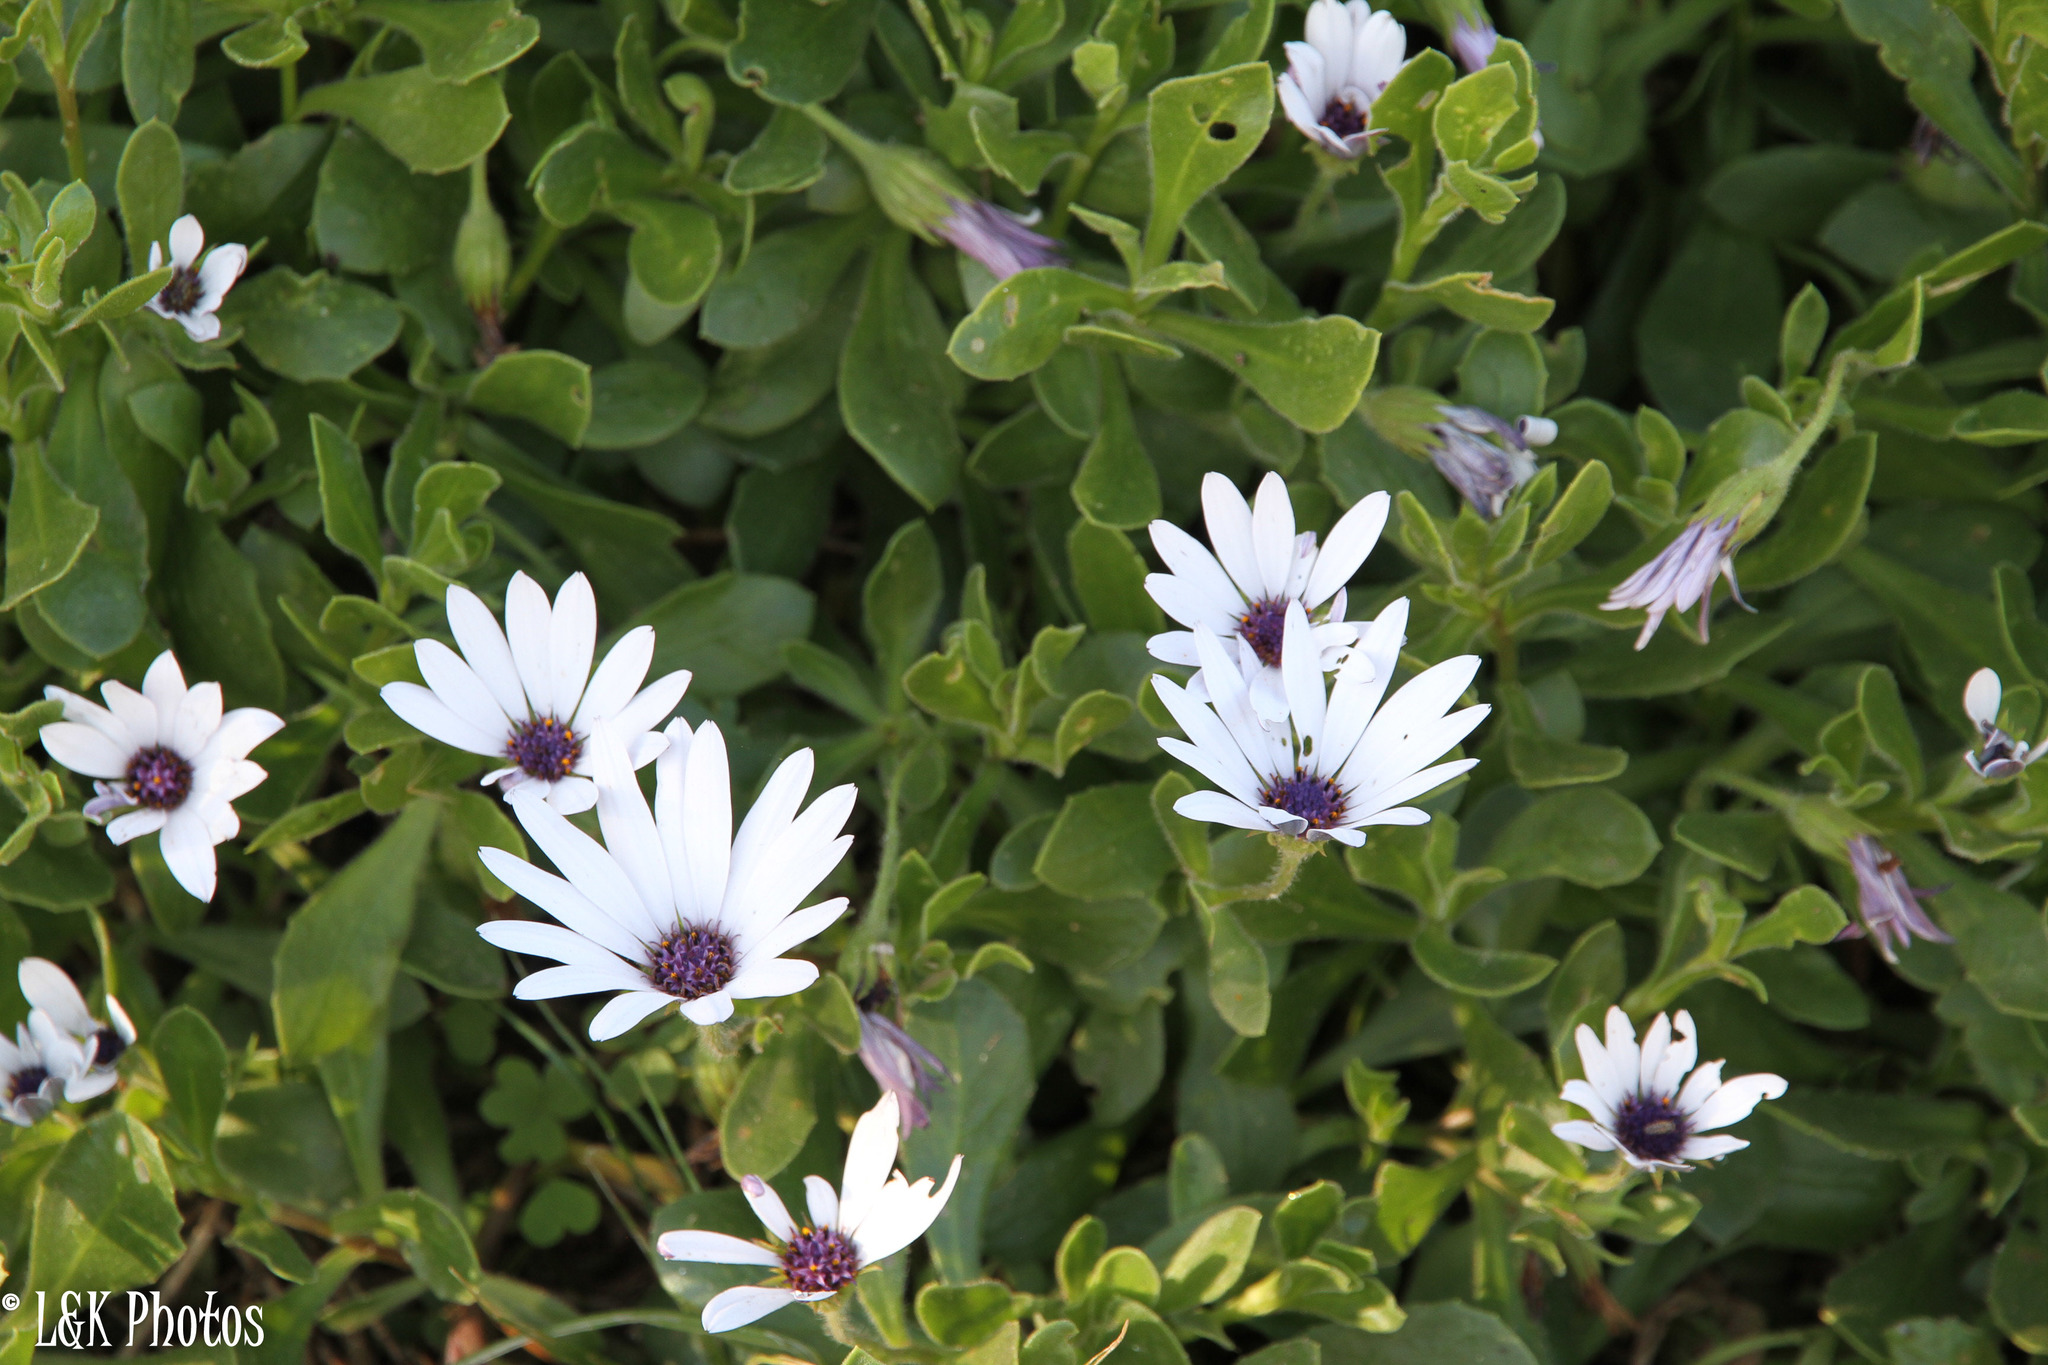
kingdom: Plantae
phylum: Tracheophyta
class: Magnoliopsida
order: Asterales
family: Asteraceae
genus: Dimorphotheca
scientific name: Dimorphotheca fruticosa
